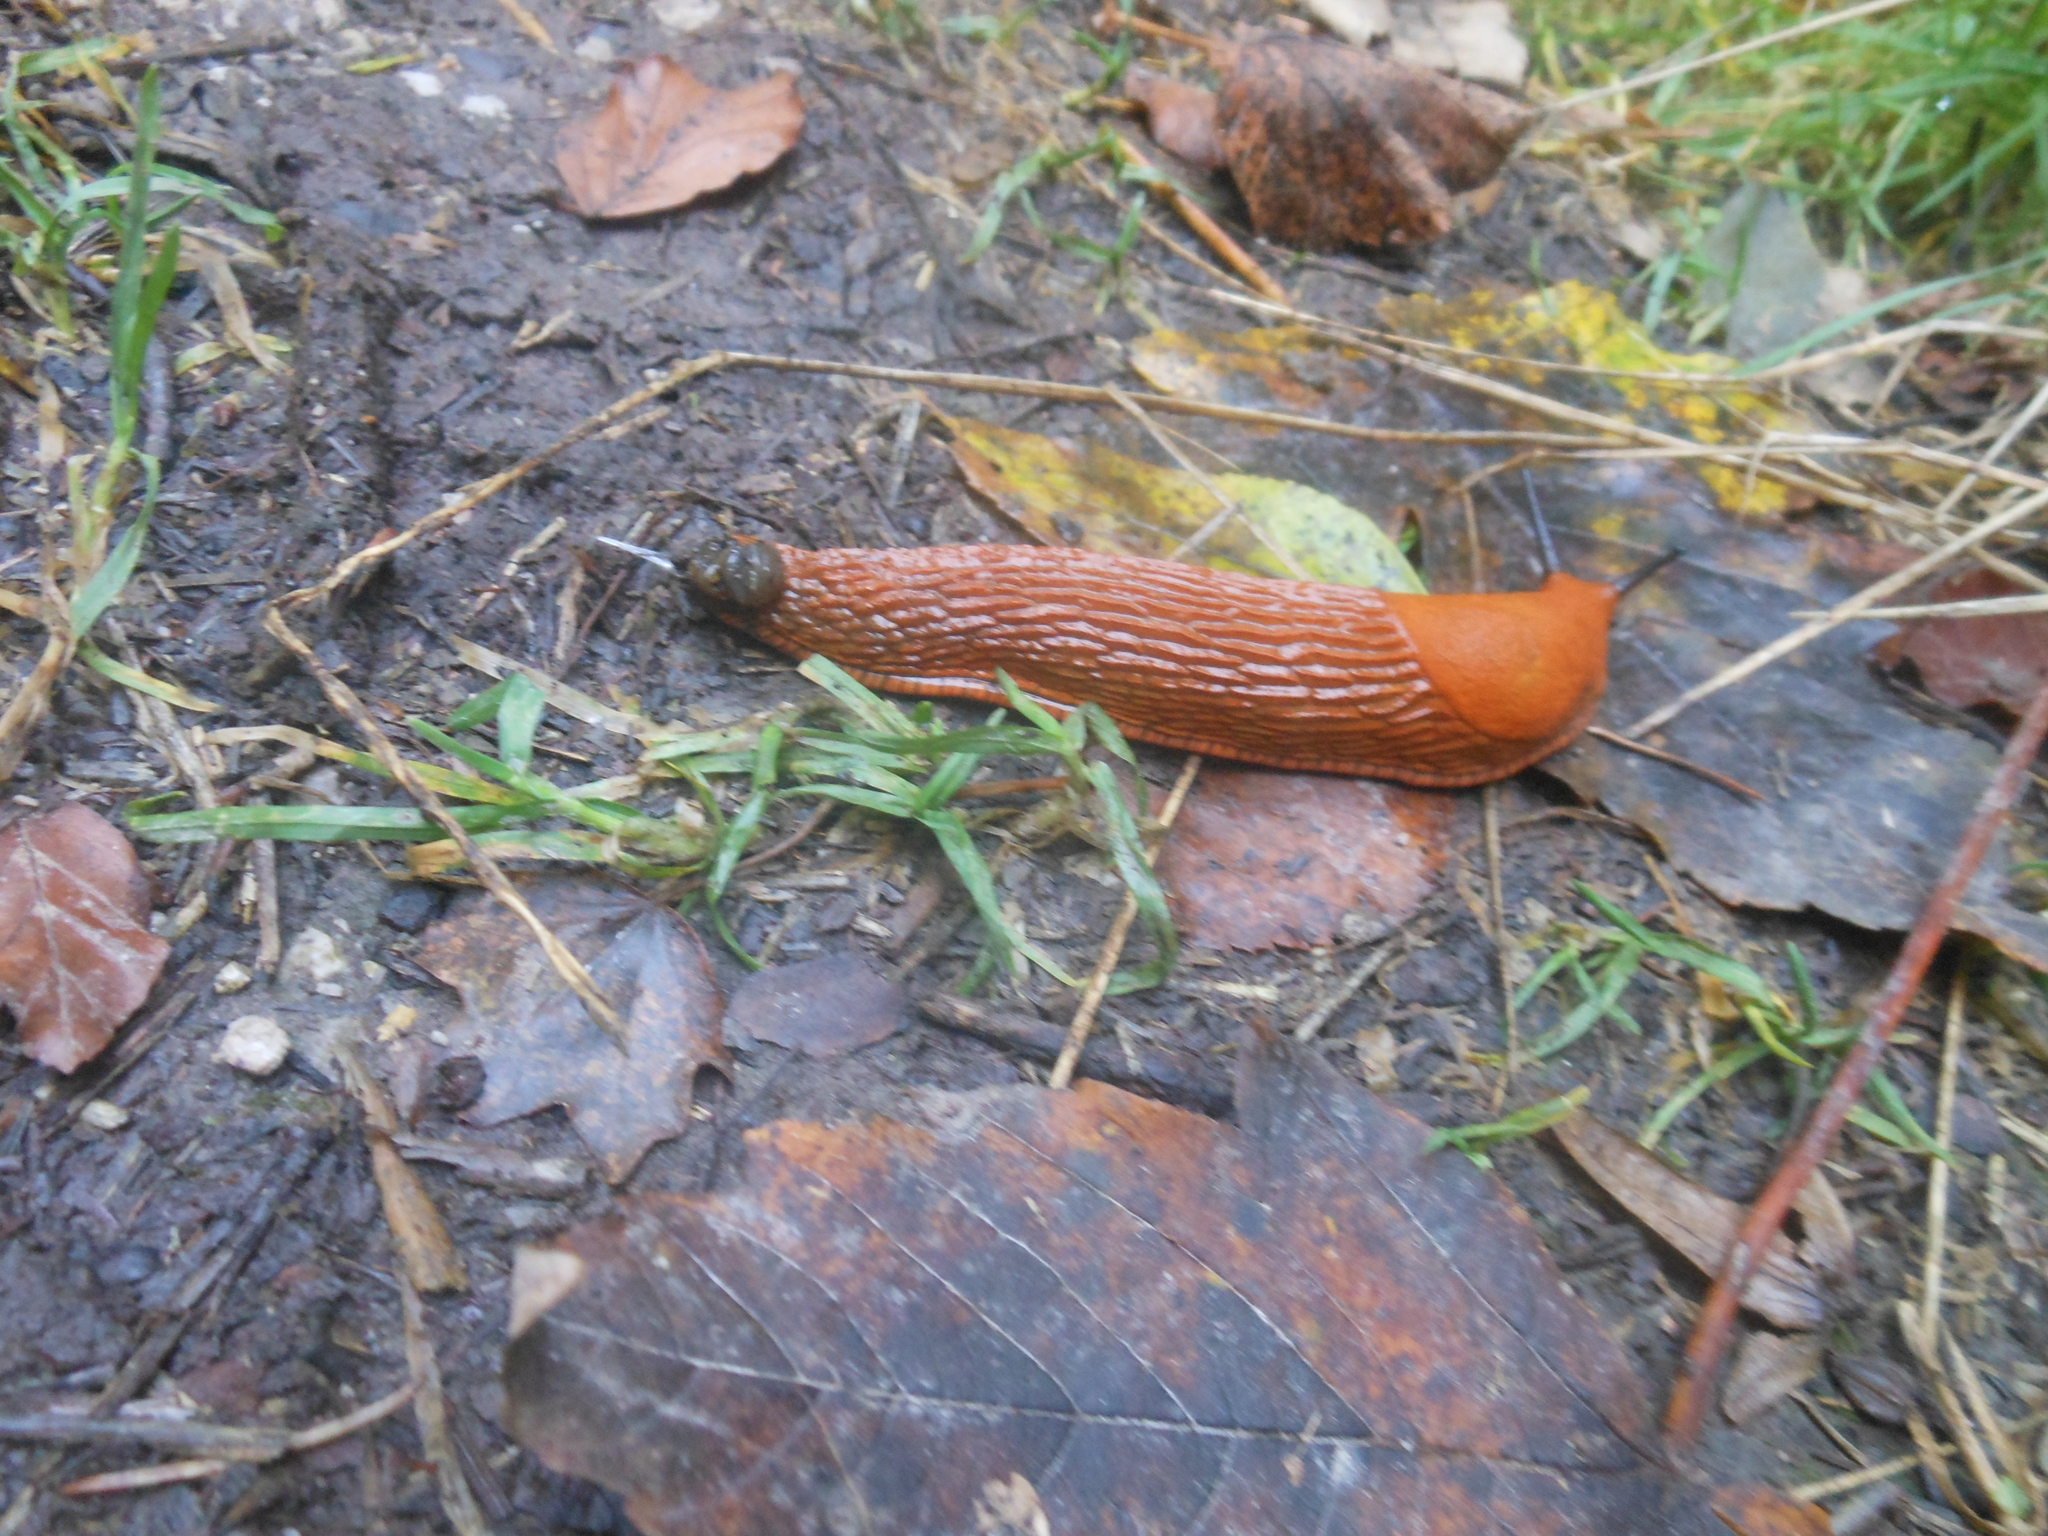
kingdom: Animalia
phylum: Mollusca
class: Gastropoda
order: Stylommatophora
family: Arionidae
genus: Arion
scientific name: Arion vulgaris
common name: Lusitanian slug
